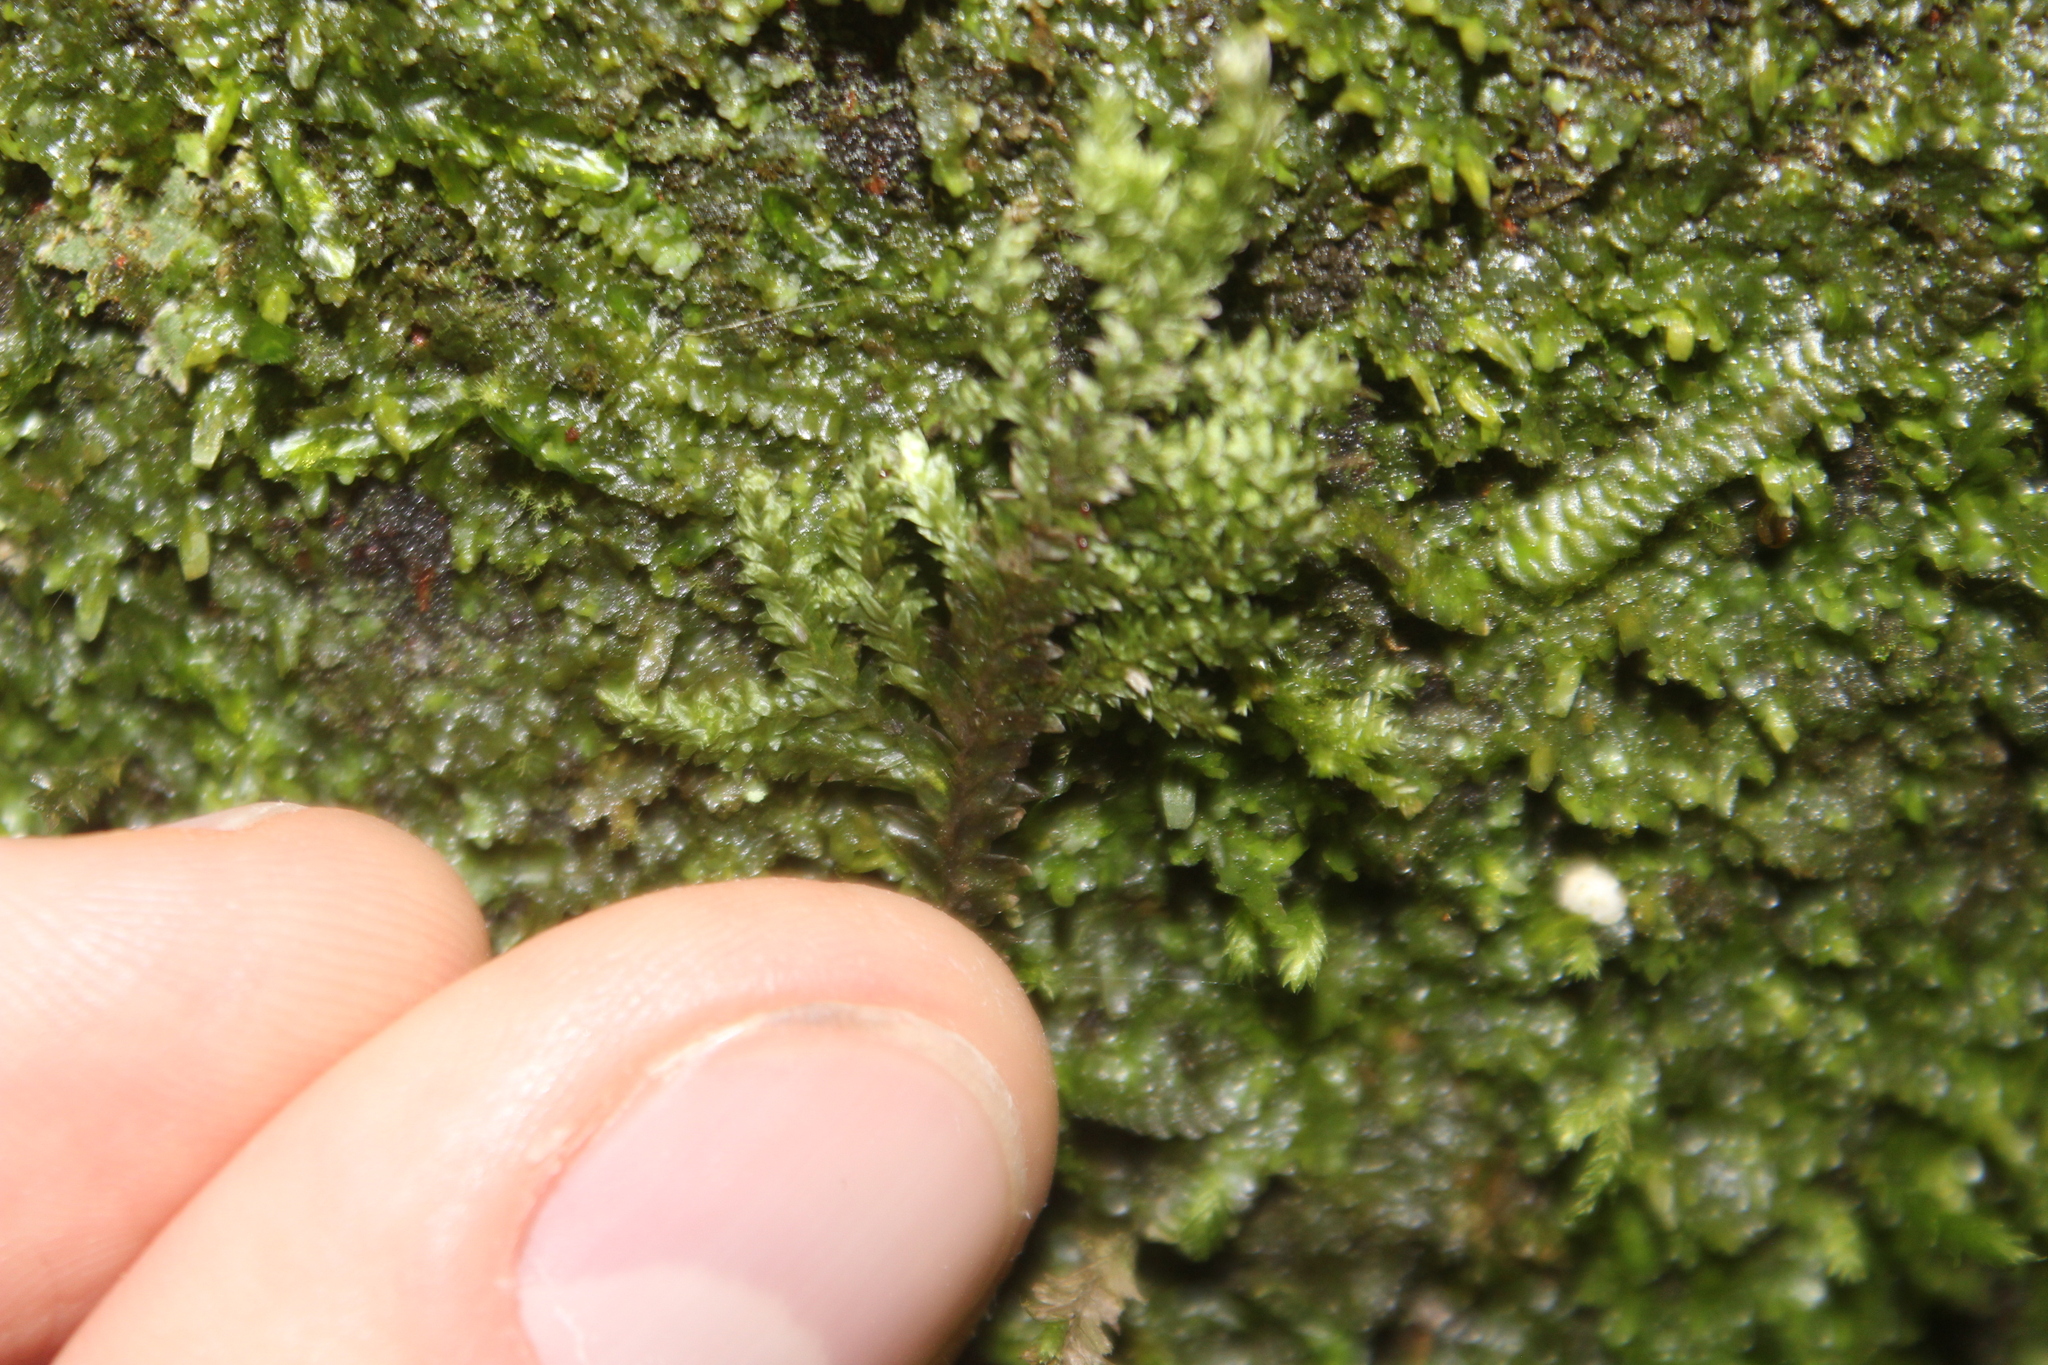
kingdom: Plantae
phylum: Bryophyta
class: Bryopsida
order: Hypnales
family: Trachylomataceae
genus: Trachyloma
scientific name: Trachyloma diversinerve
